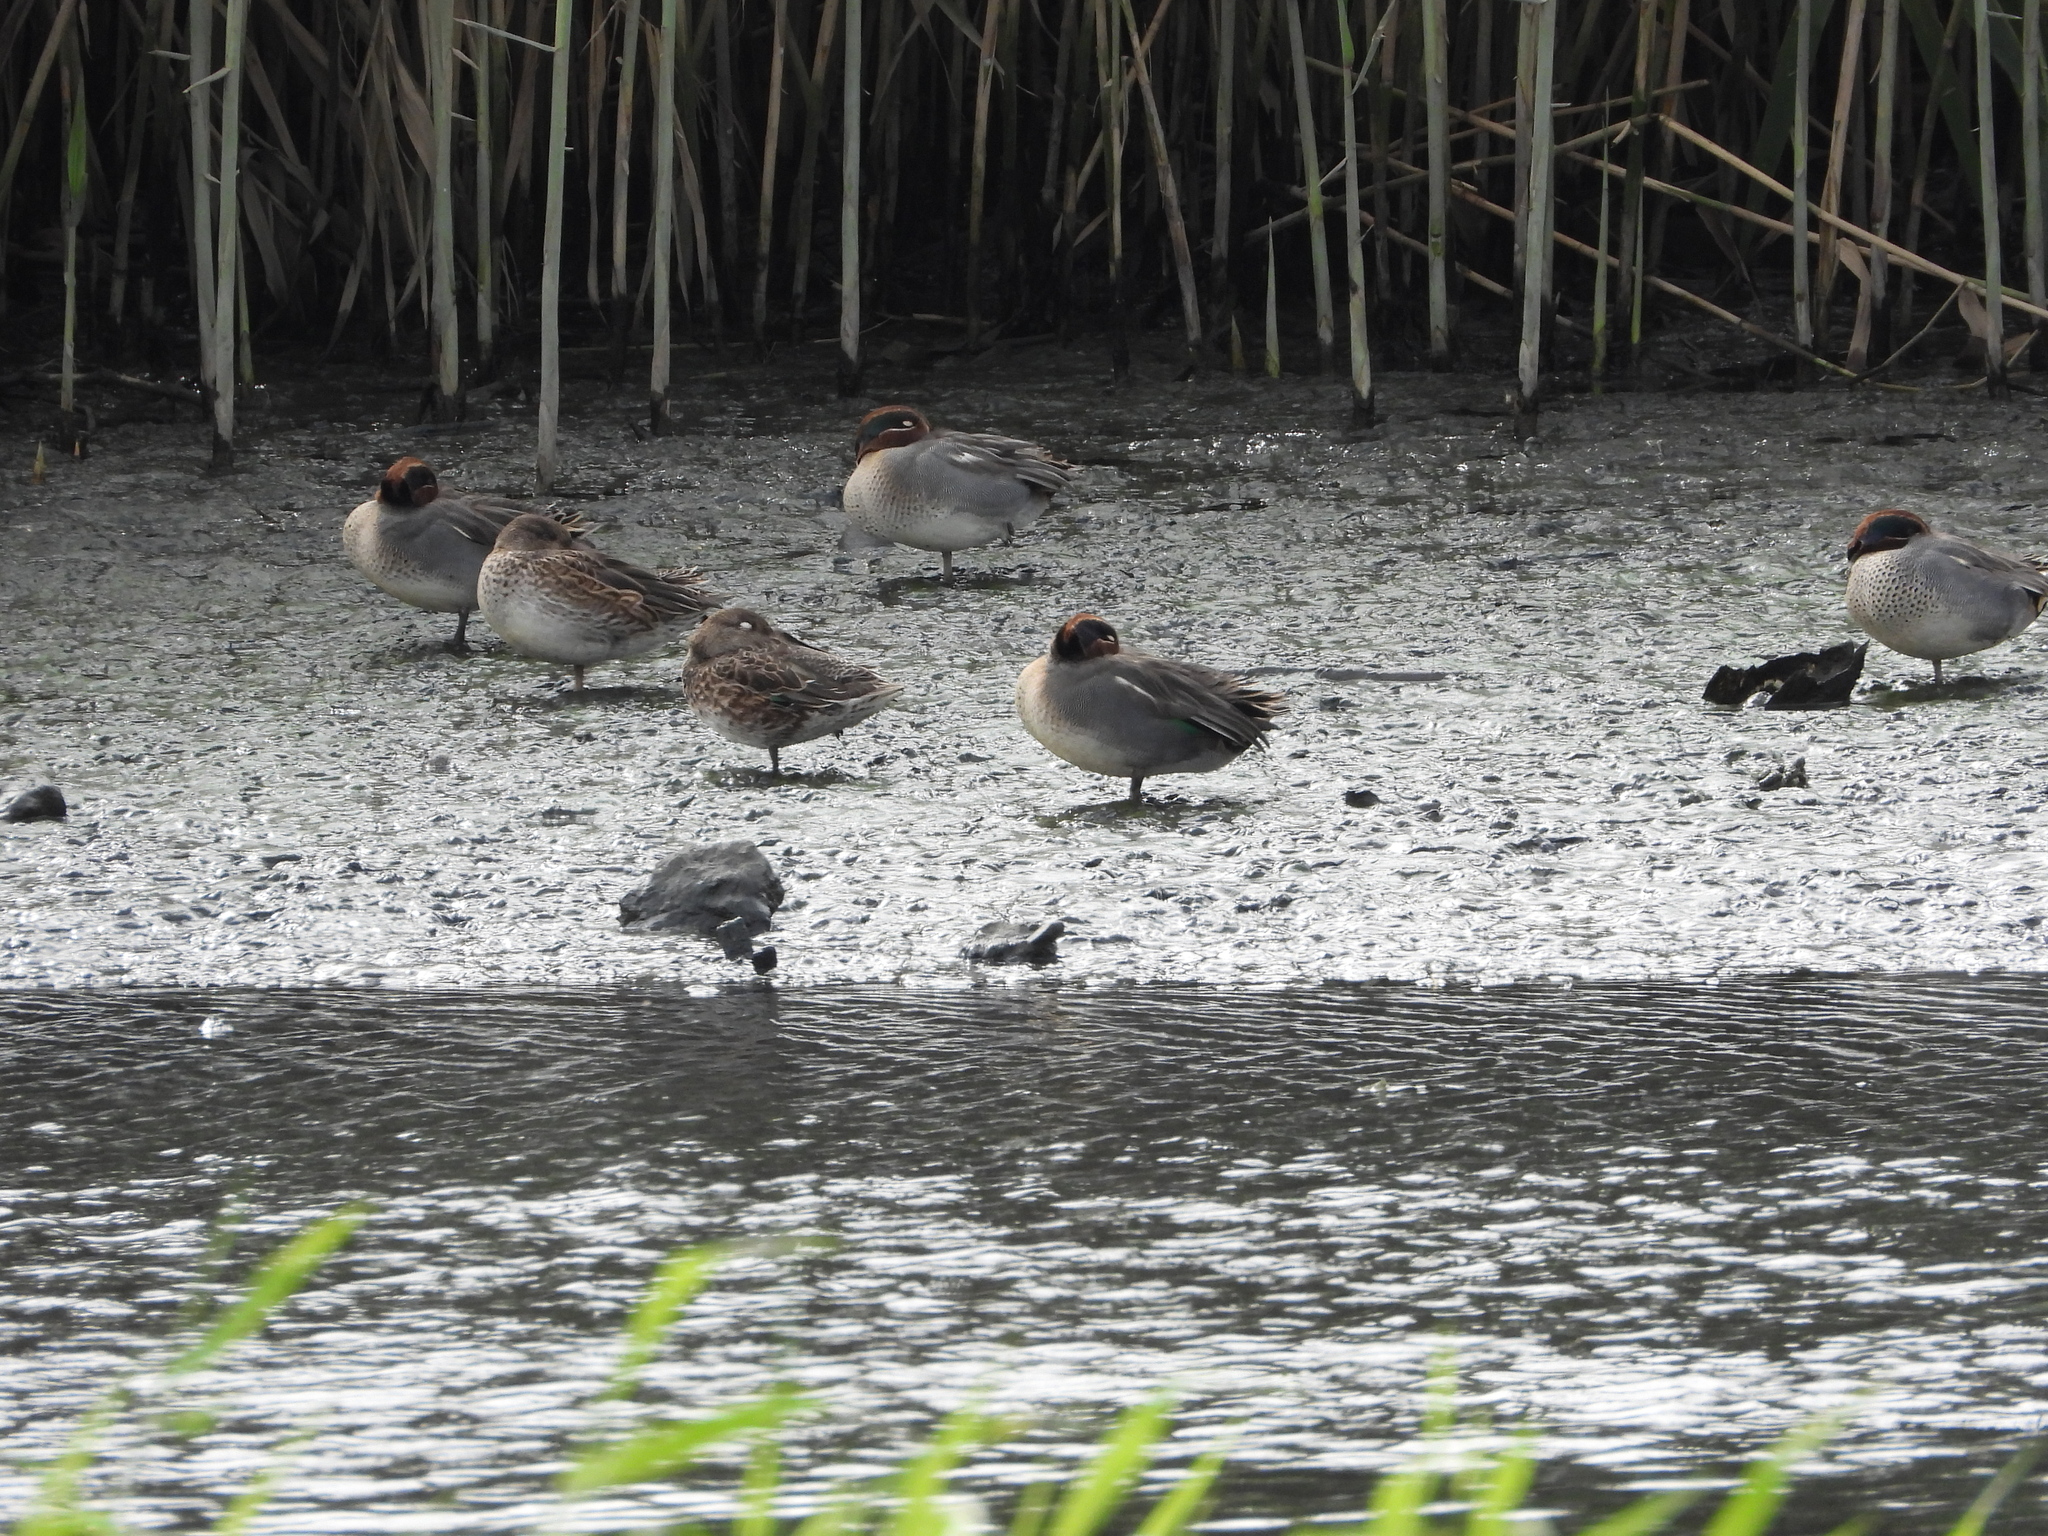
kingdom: Animalia
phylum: Chordata
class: Aves
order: Anseriformes
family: Anatidae
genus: Anas
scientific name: Anas crecca
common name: Eurasian teal
